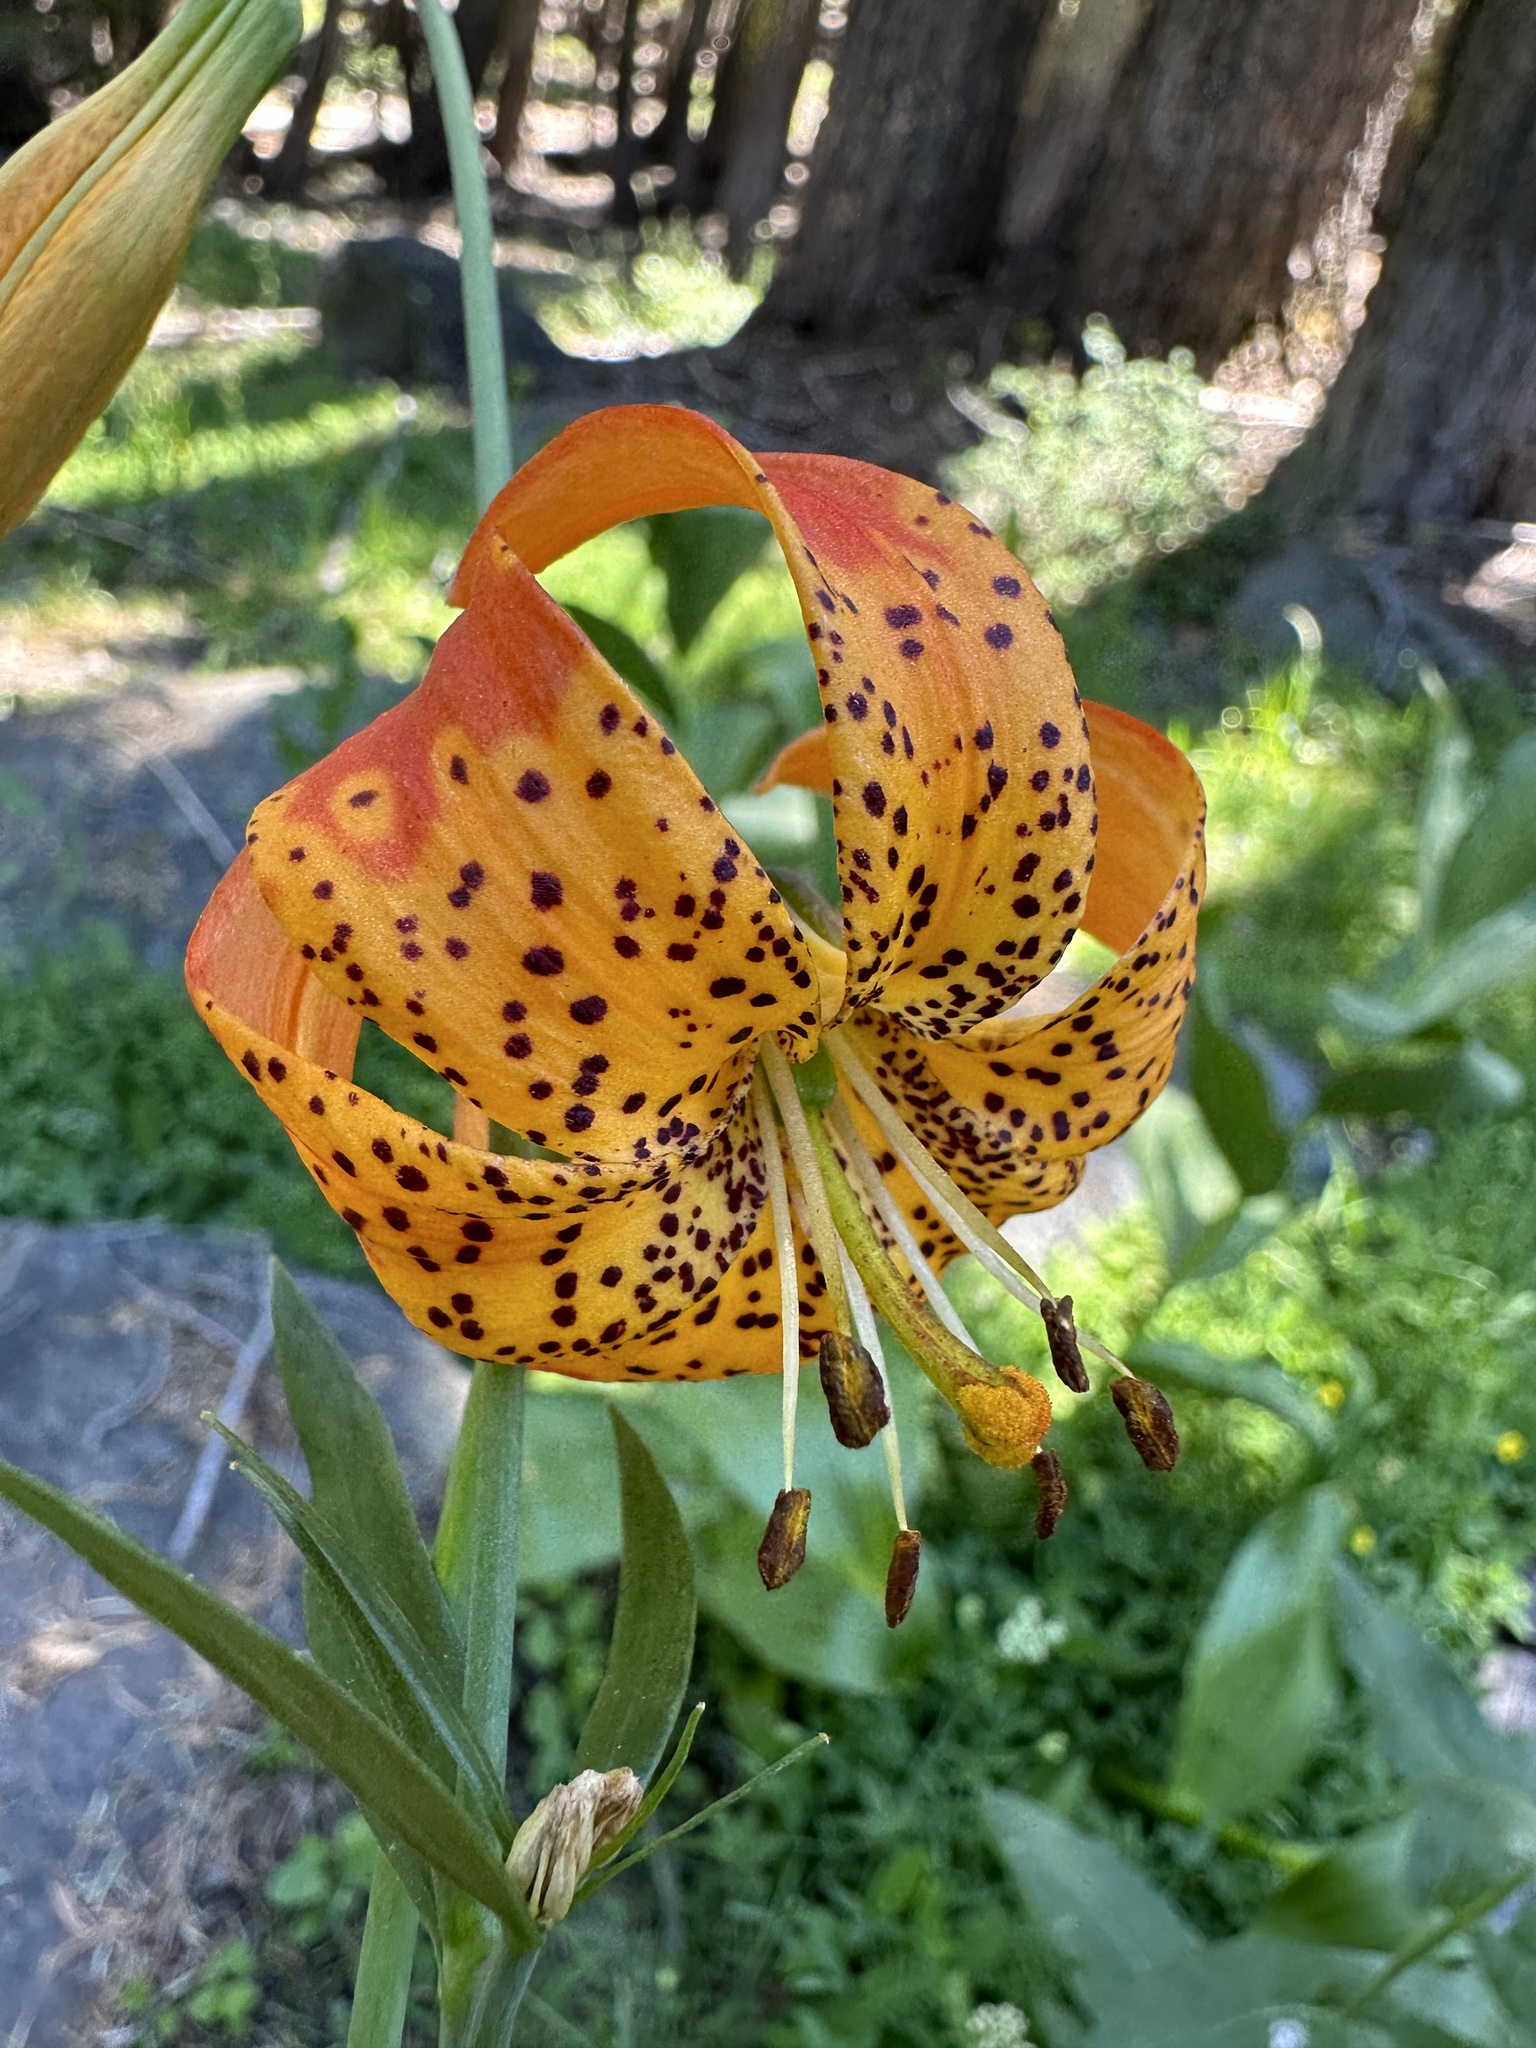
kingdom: Plantae
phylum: Tracheophyta
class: Liliopsida
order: Liliales
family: Liliaceae
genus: Lilium
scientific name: Lilium pardalinum
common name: Panther lily
